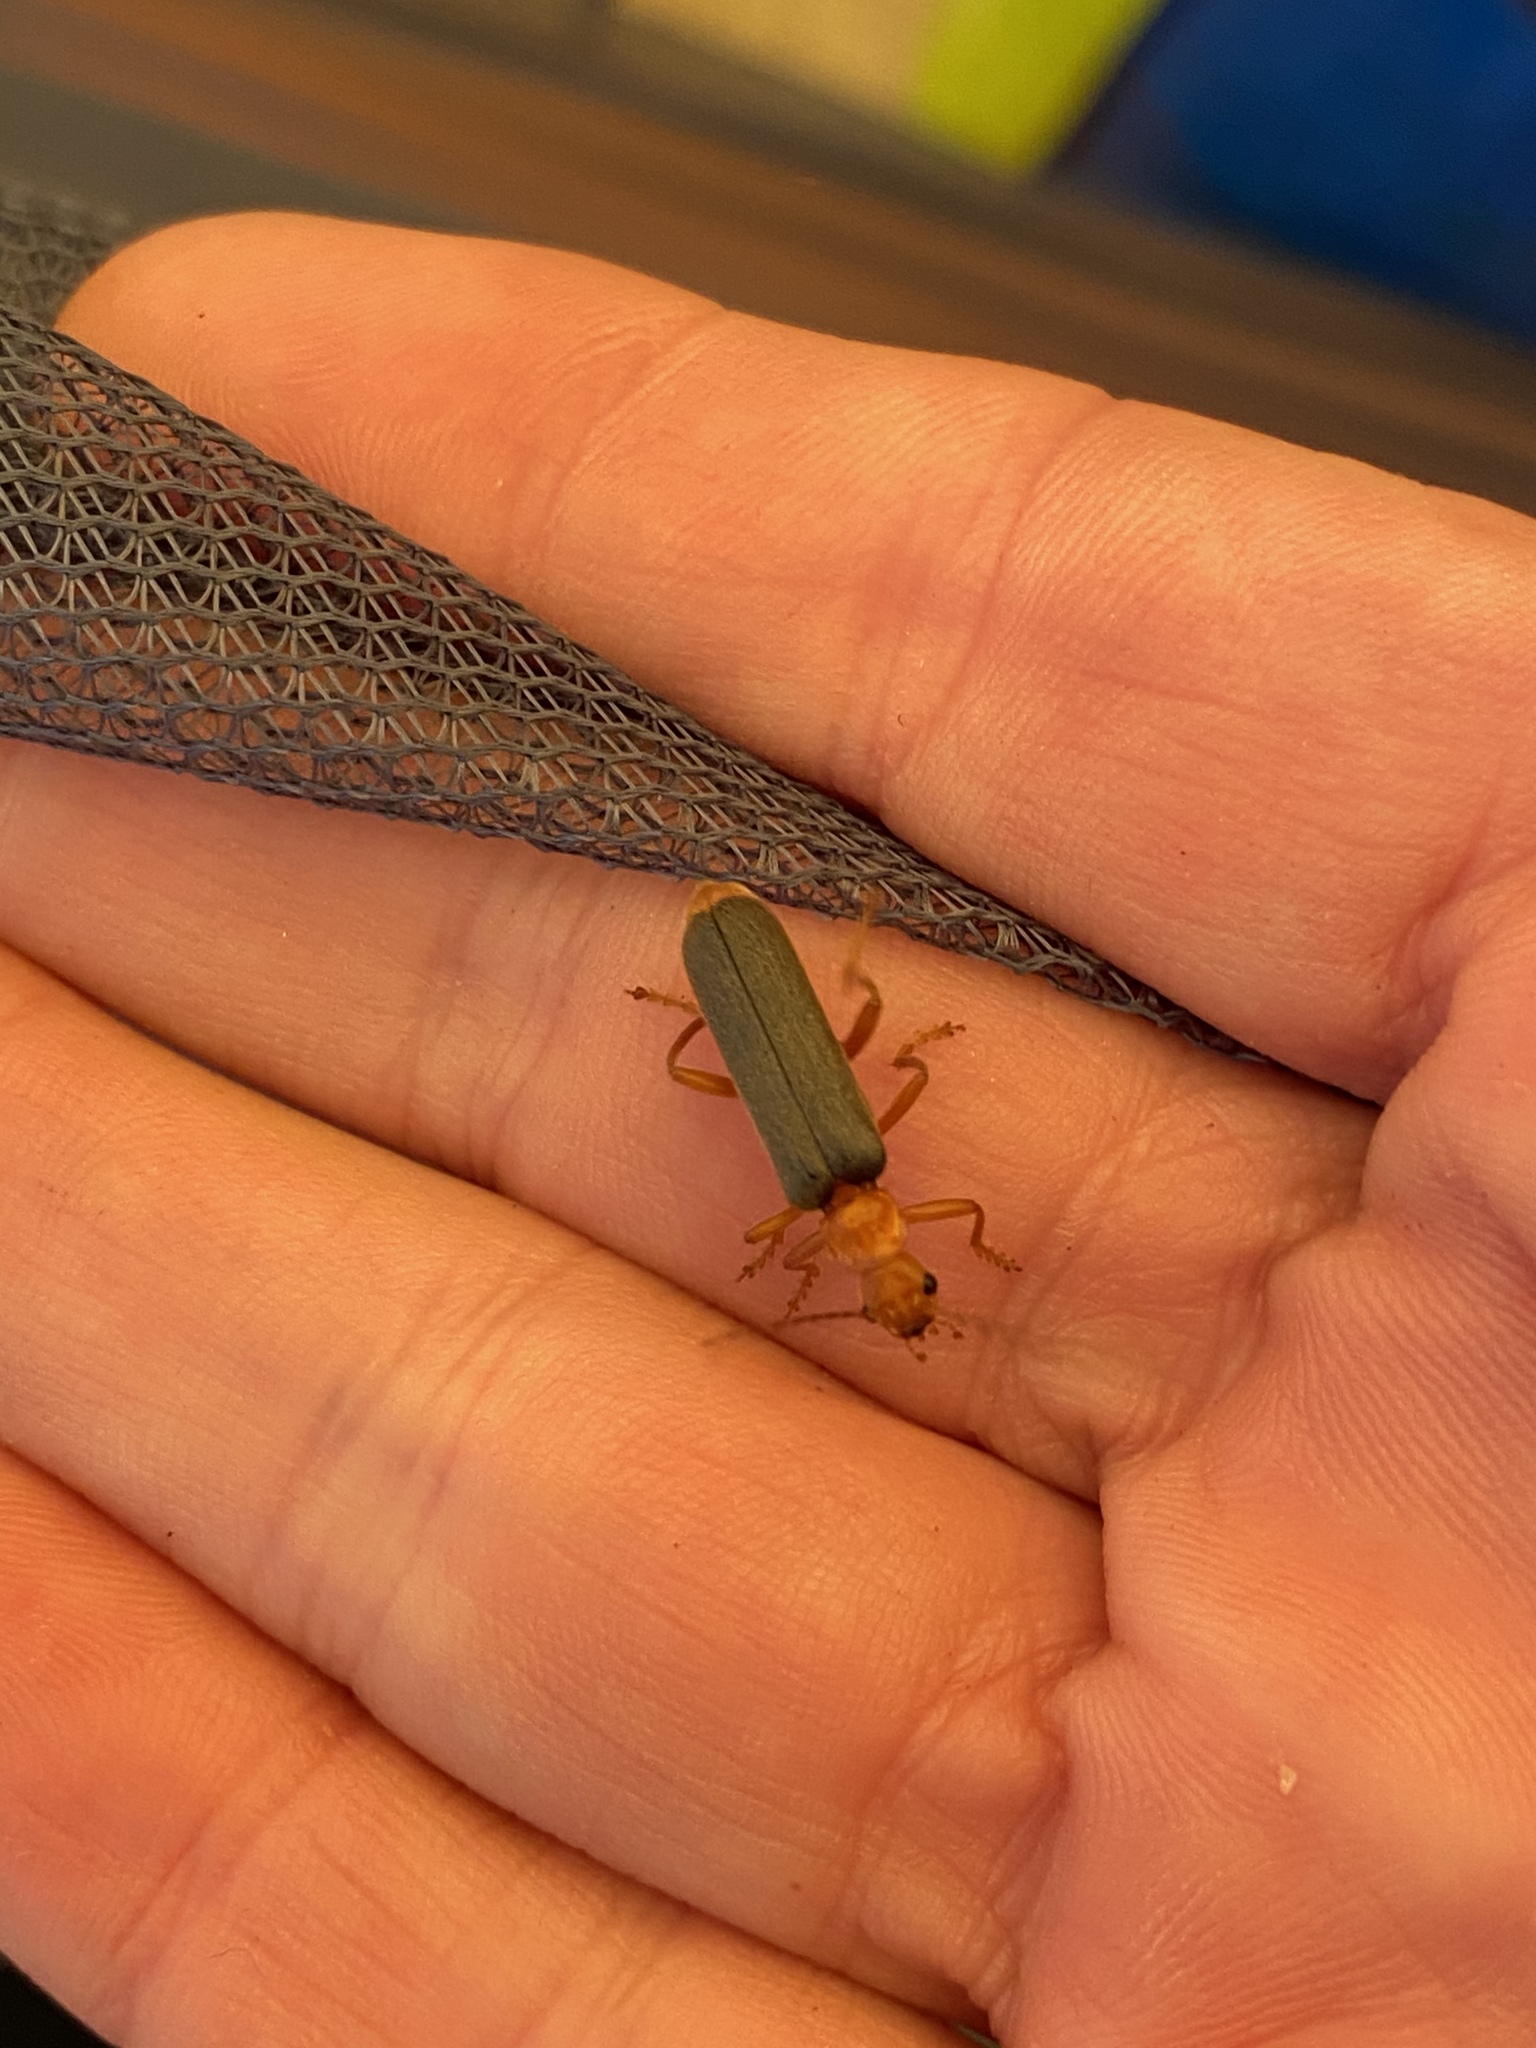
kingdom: Animalia
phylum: Arthropoda
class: Insecta
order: Coleoptera
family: Cantharidae
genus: Pacificanthia
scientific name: Pacificanthia rotundicollis
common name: Brown leatherwing beetle
